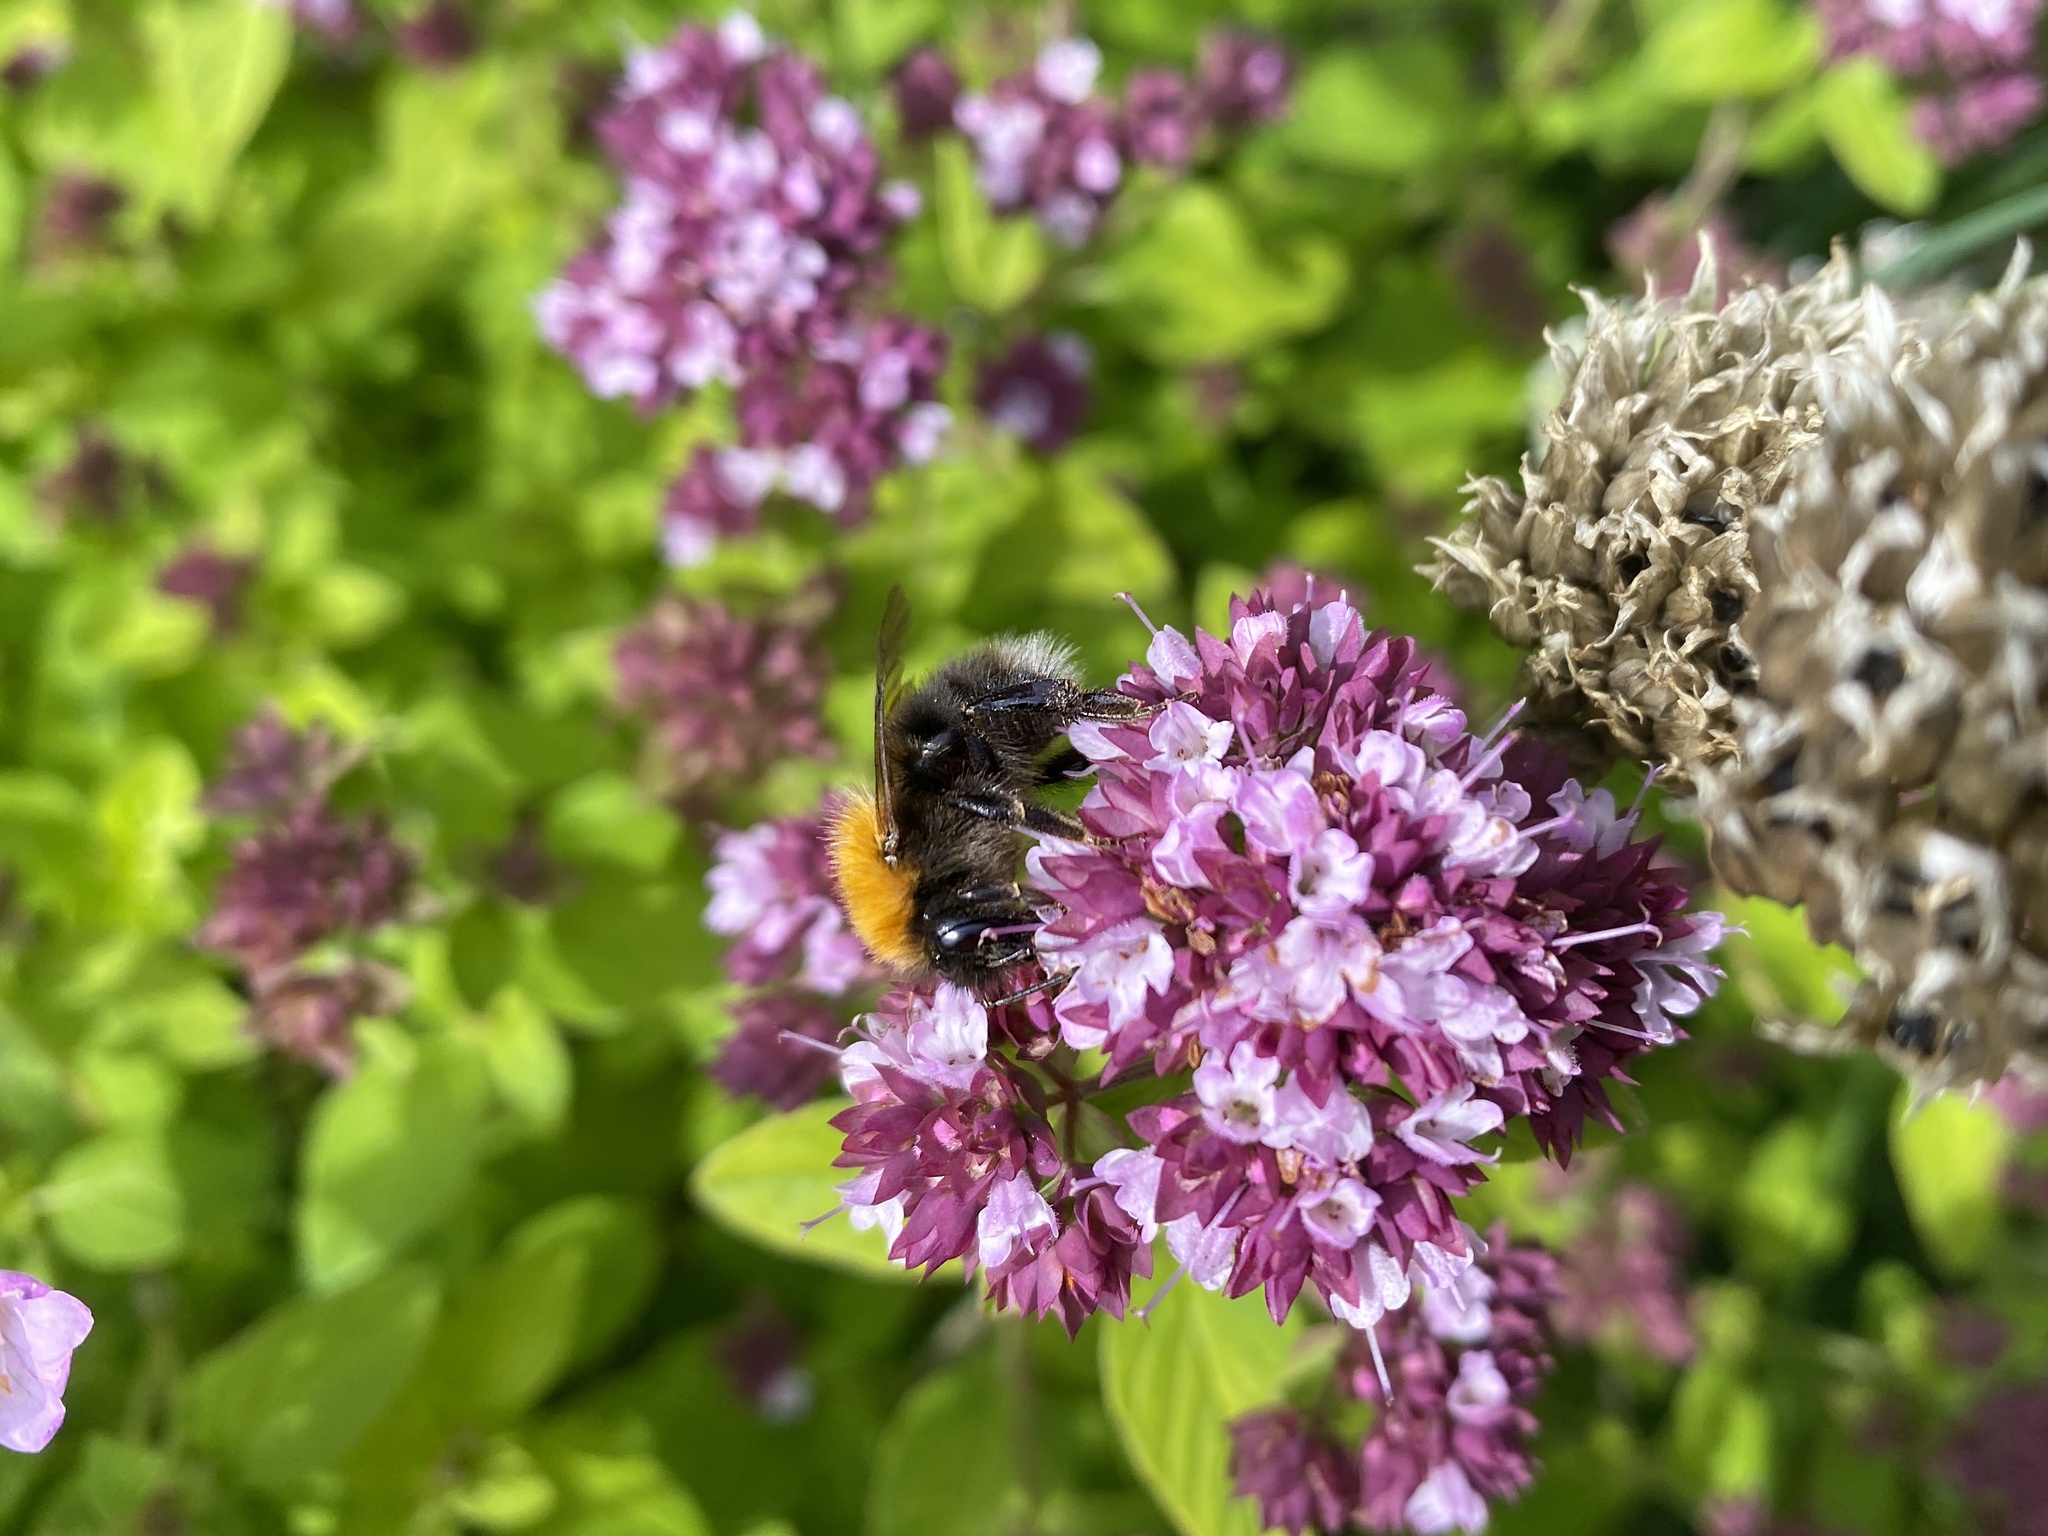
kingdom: Animalia
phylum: Arthropoda
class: Insecta
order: Hymenoptera
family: Apidae
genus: Bombus
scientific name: Bombus hypnorum
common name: New garden bumblebee
